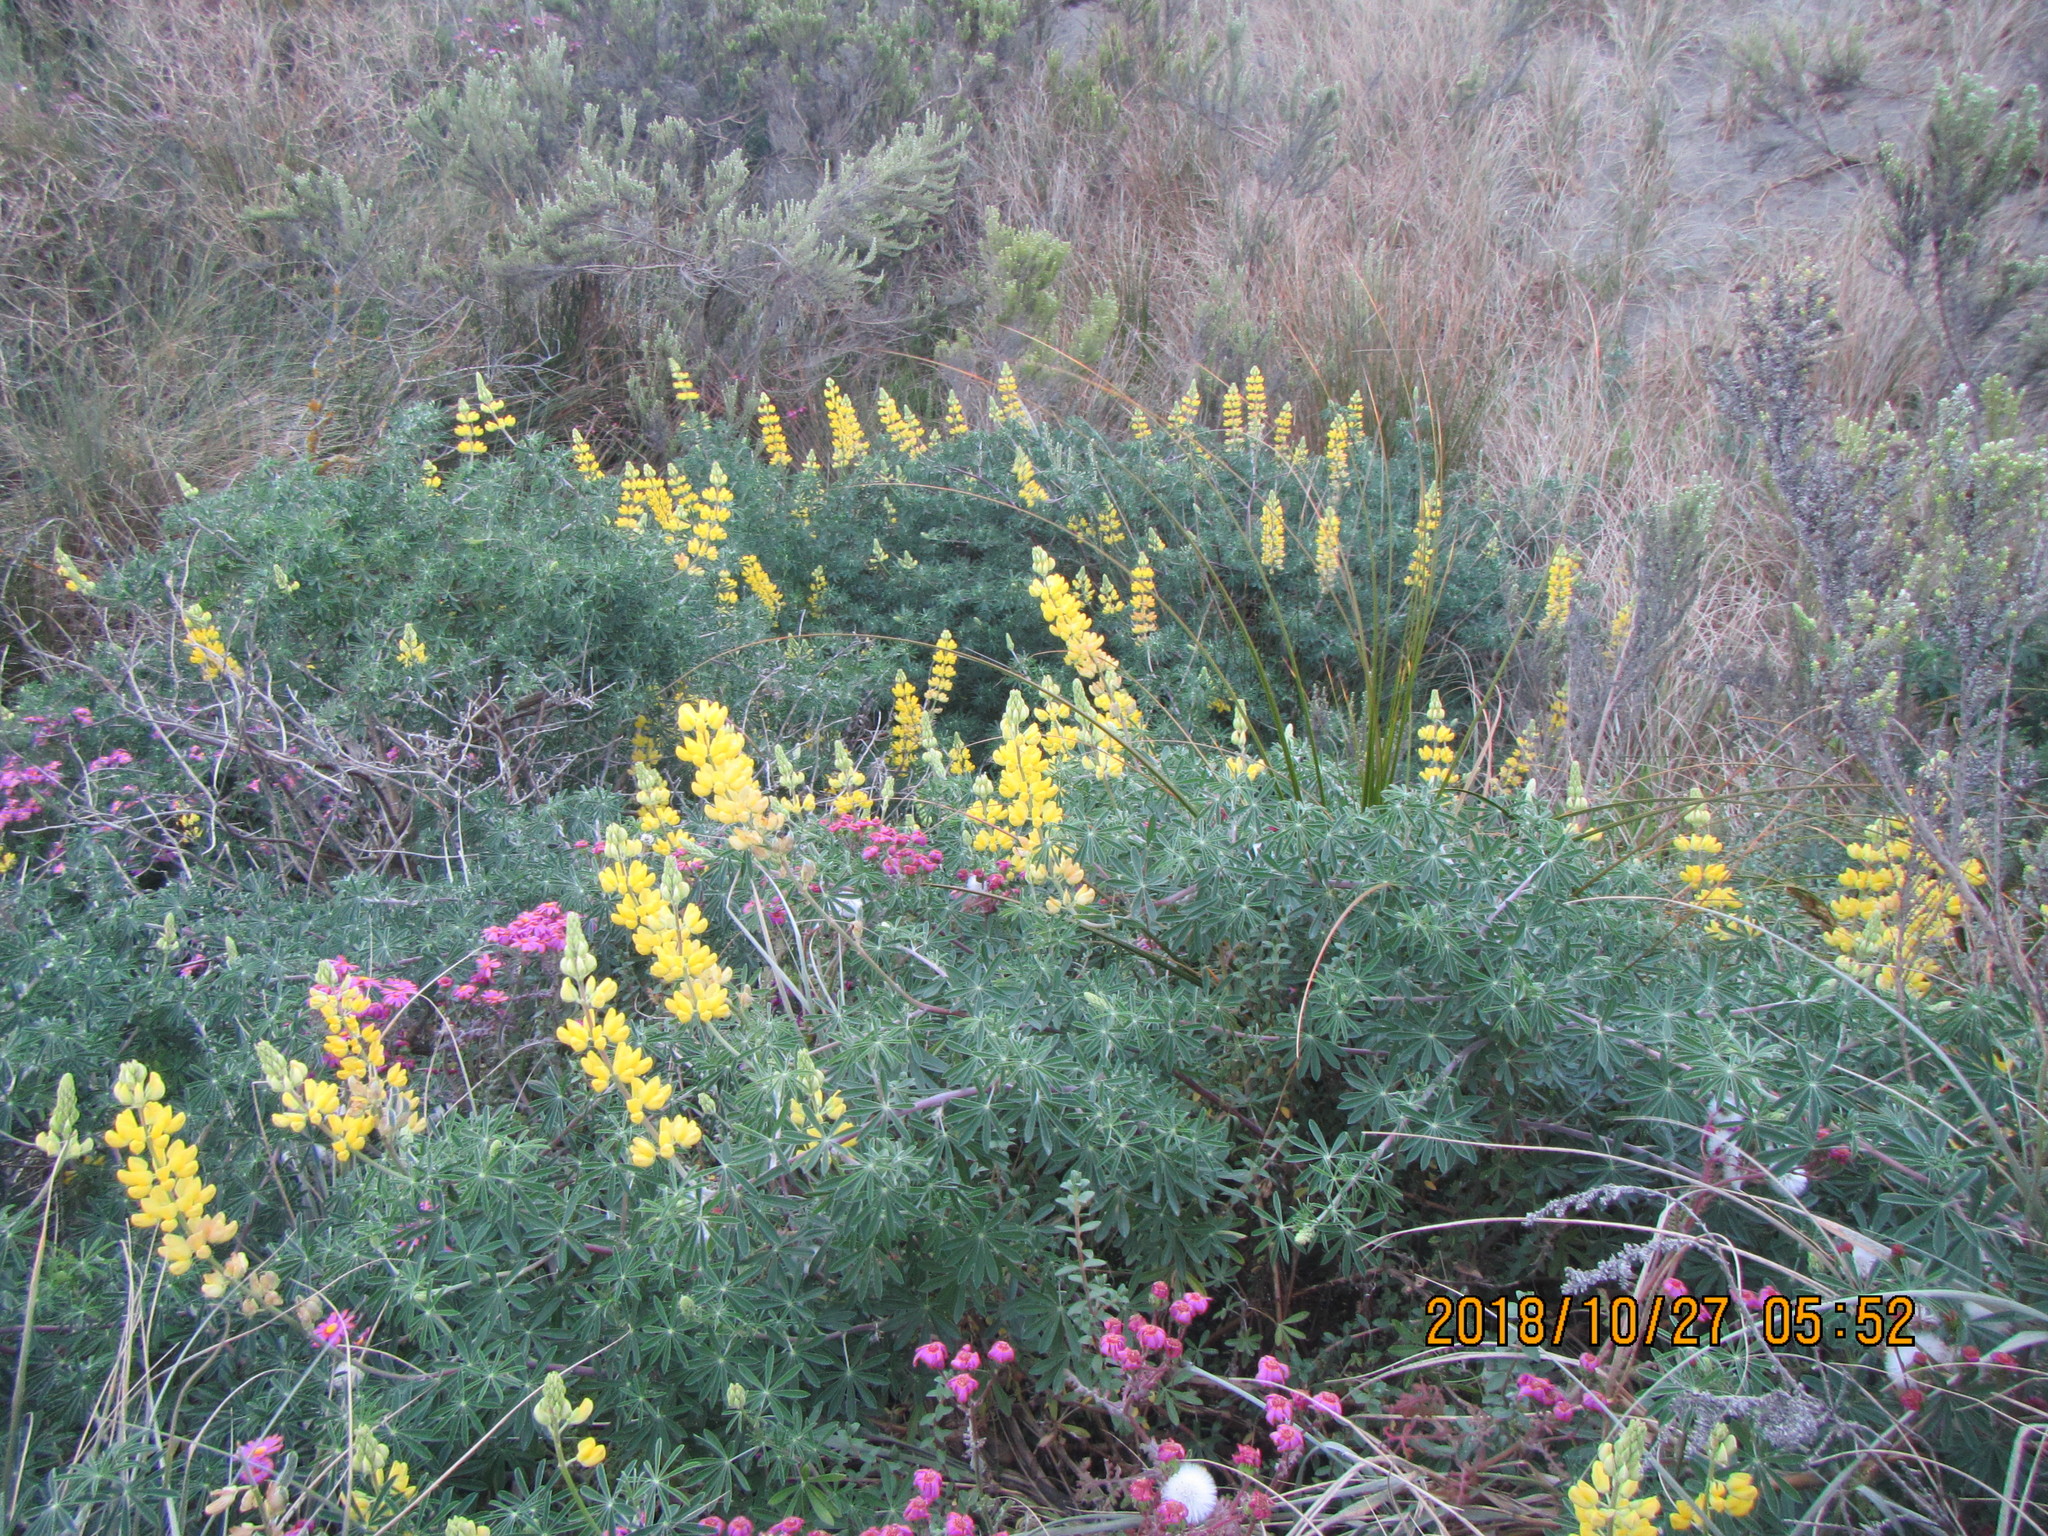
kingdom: Plantae
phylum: Tracheophyta
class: Magnoliopsida
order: Fabales
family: Fabaceae
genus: Lupinus
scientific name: Lupinus arboreus
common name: Yellow bush lupine
